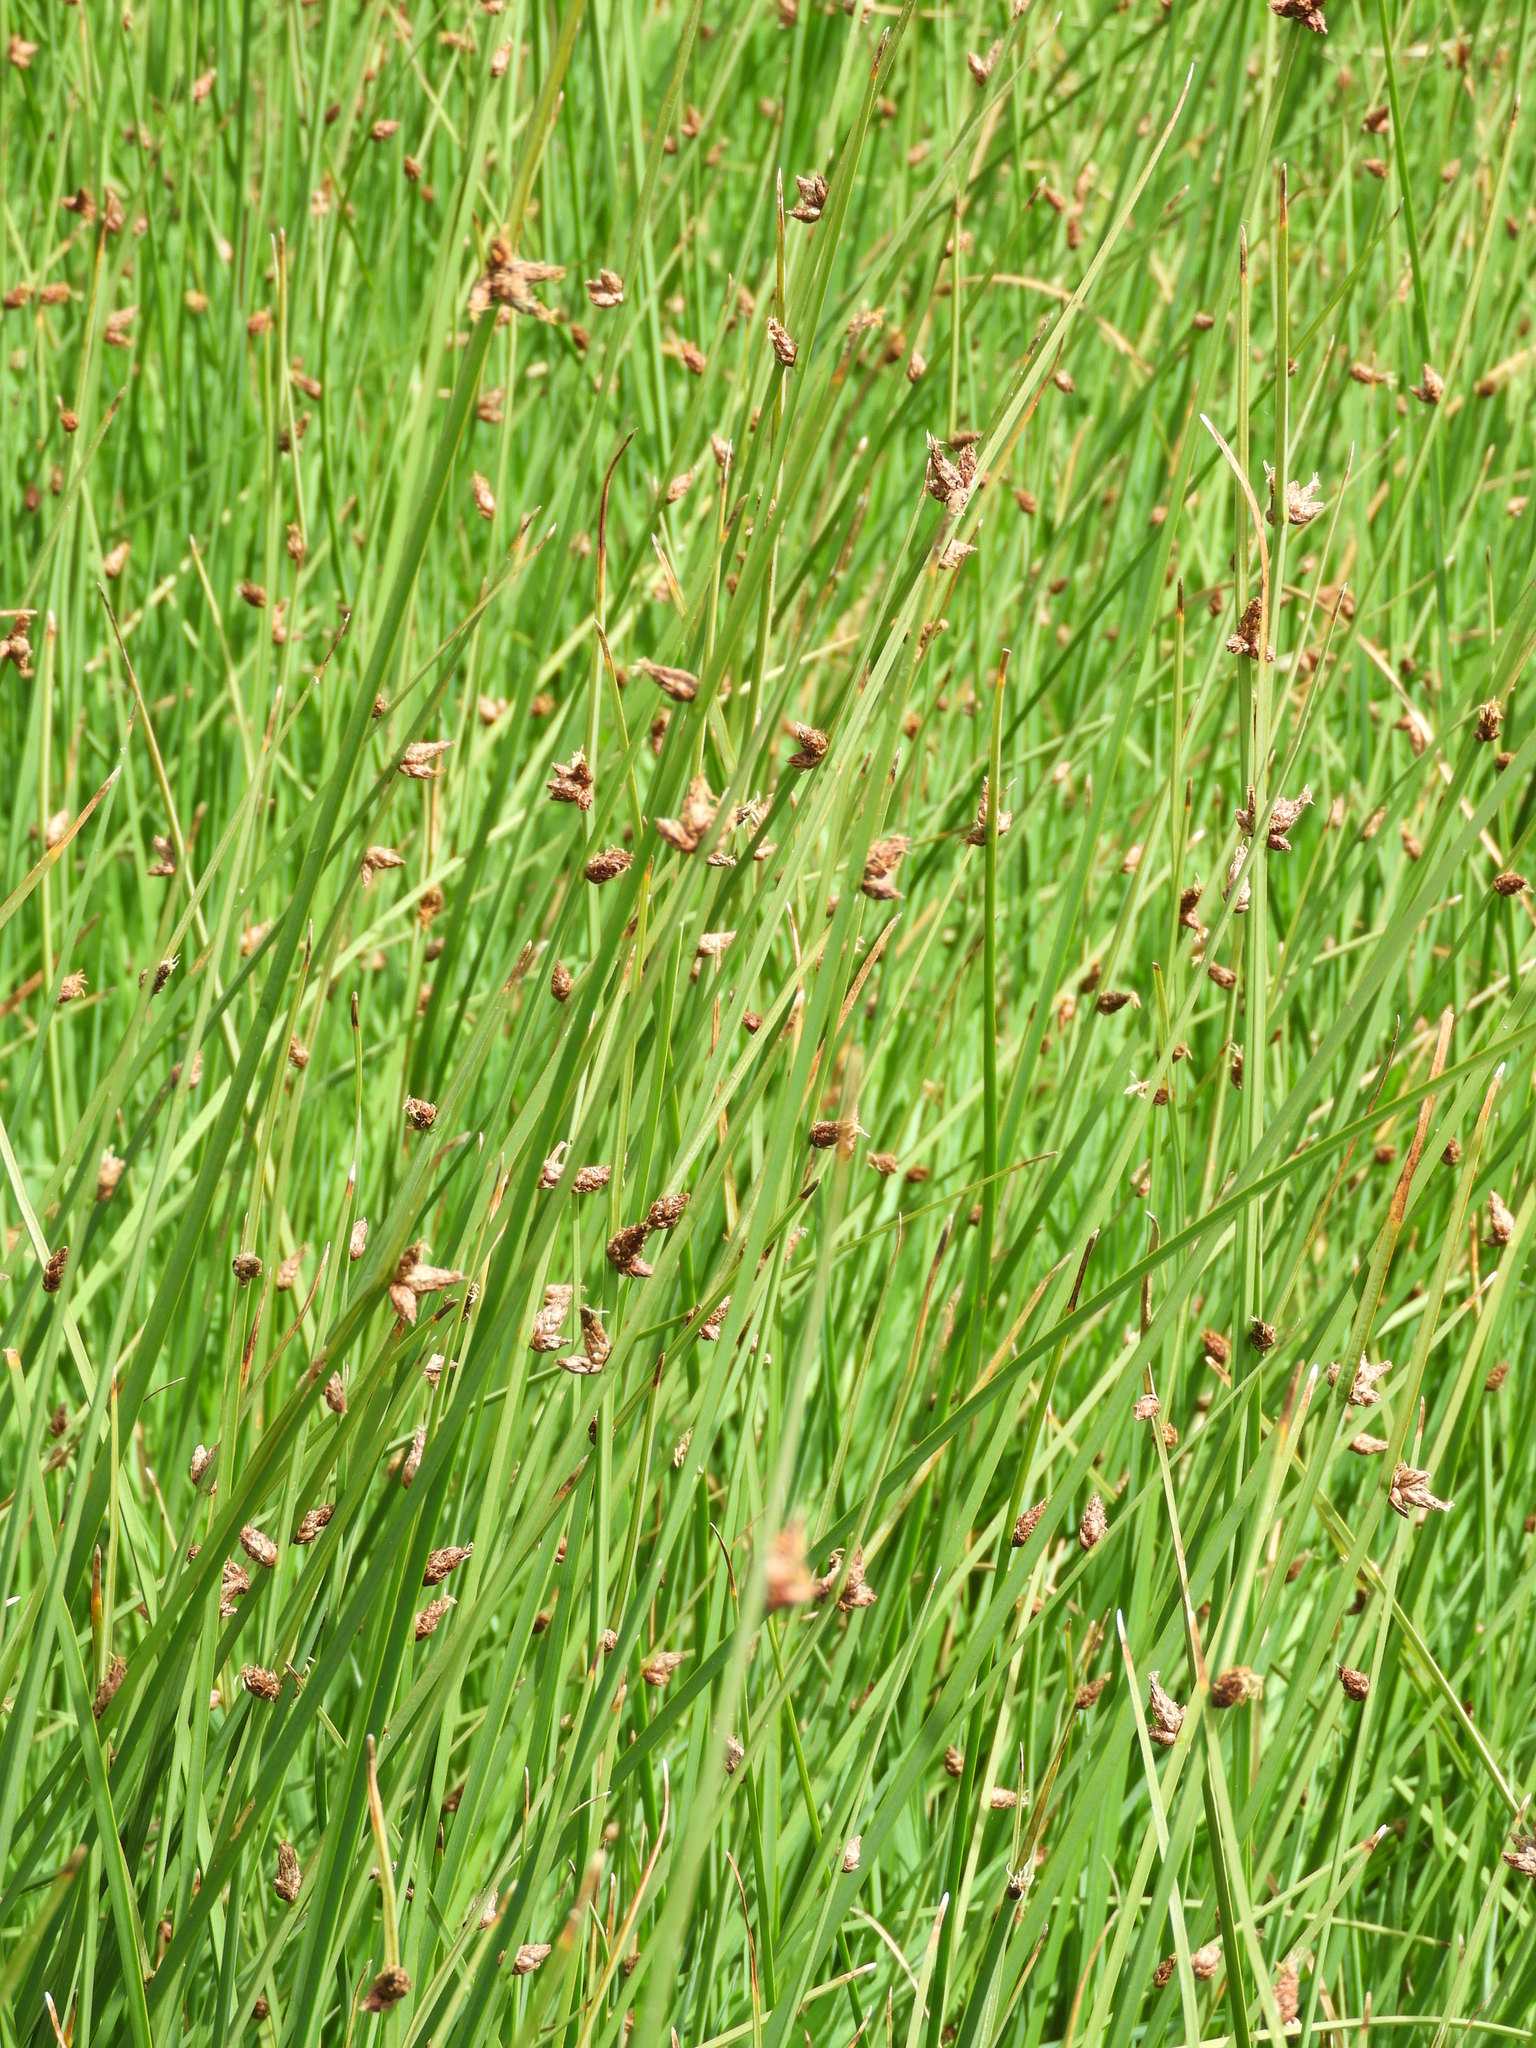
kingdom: Plantae
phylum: Tracheophyta
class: Liliopsida
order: Poales
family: Cyperaceae
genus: Schoenoplectus
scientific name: Schoenoplectus pungens
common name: Sharp club-rush
